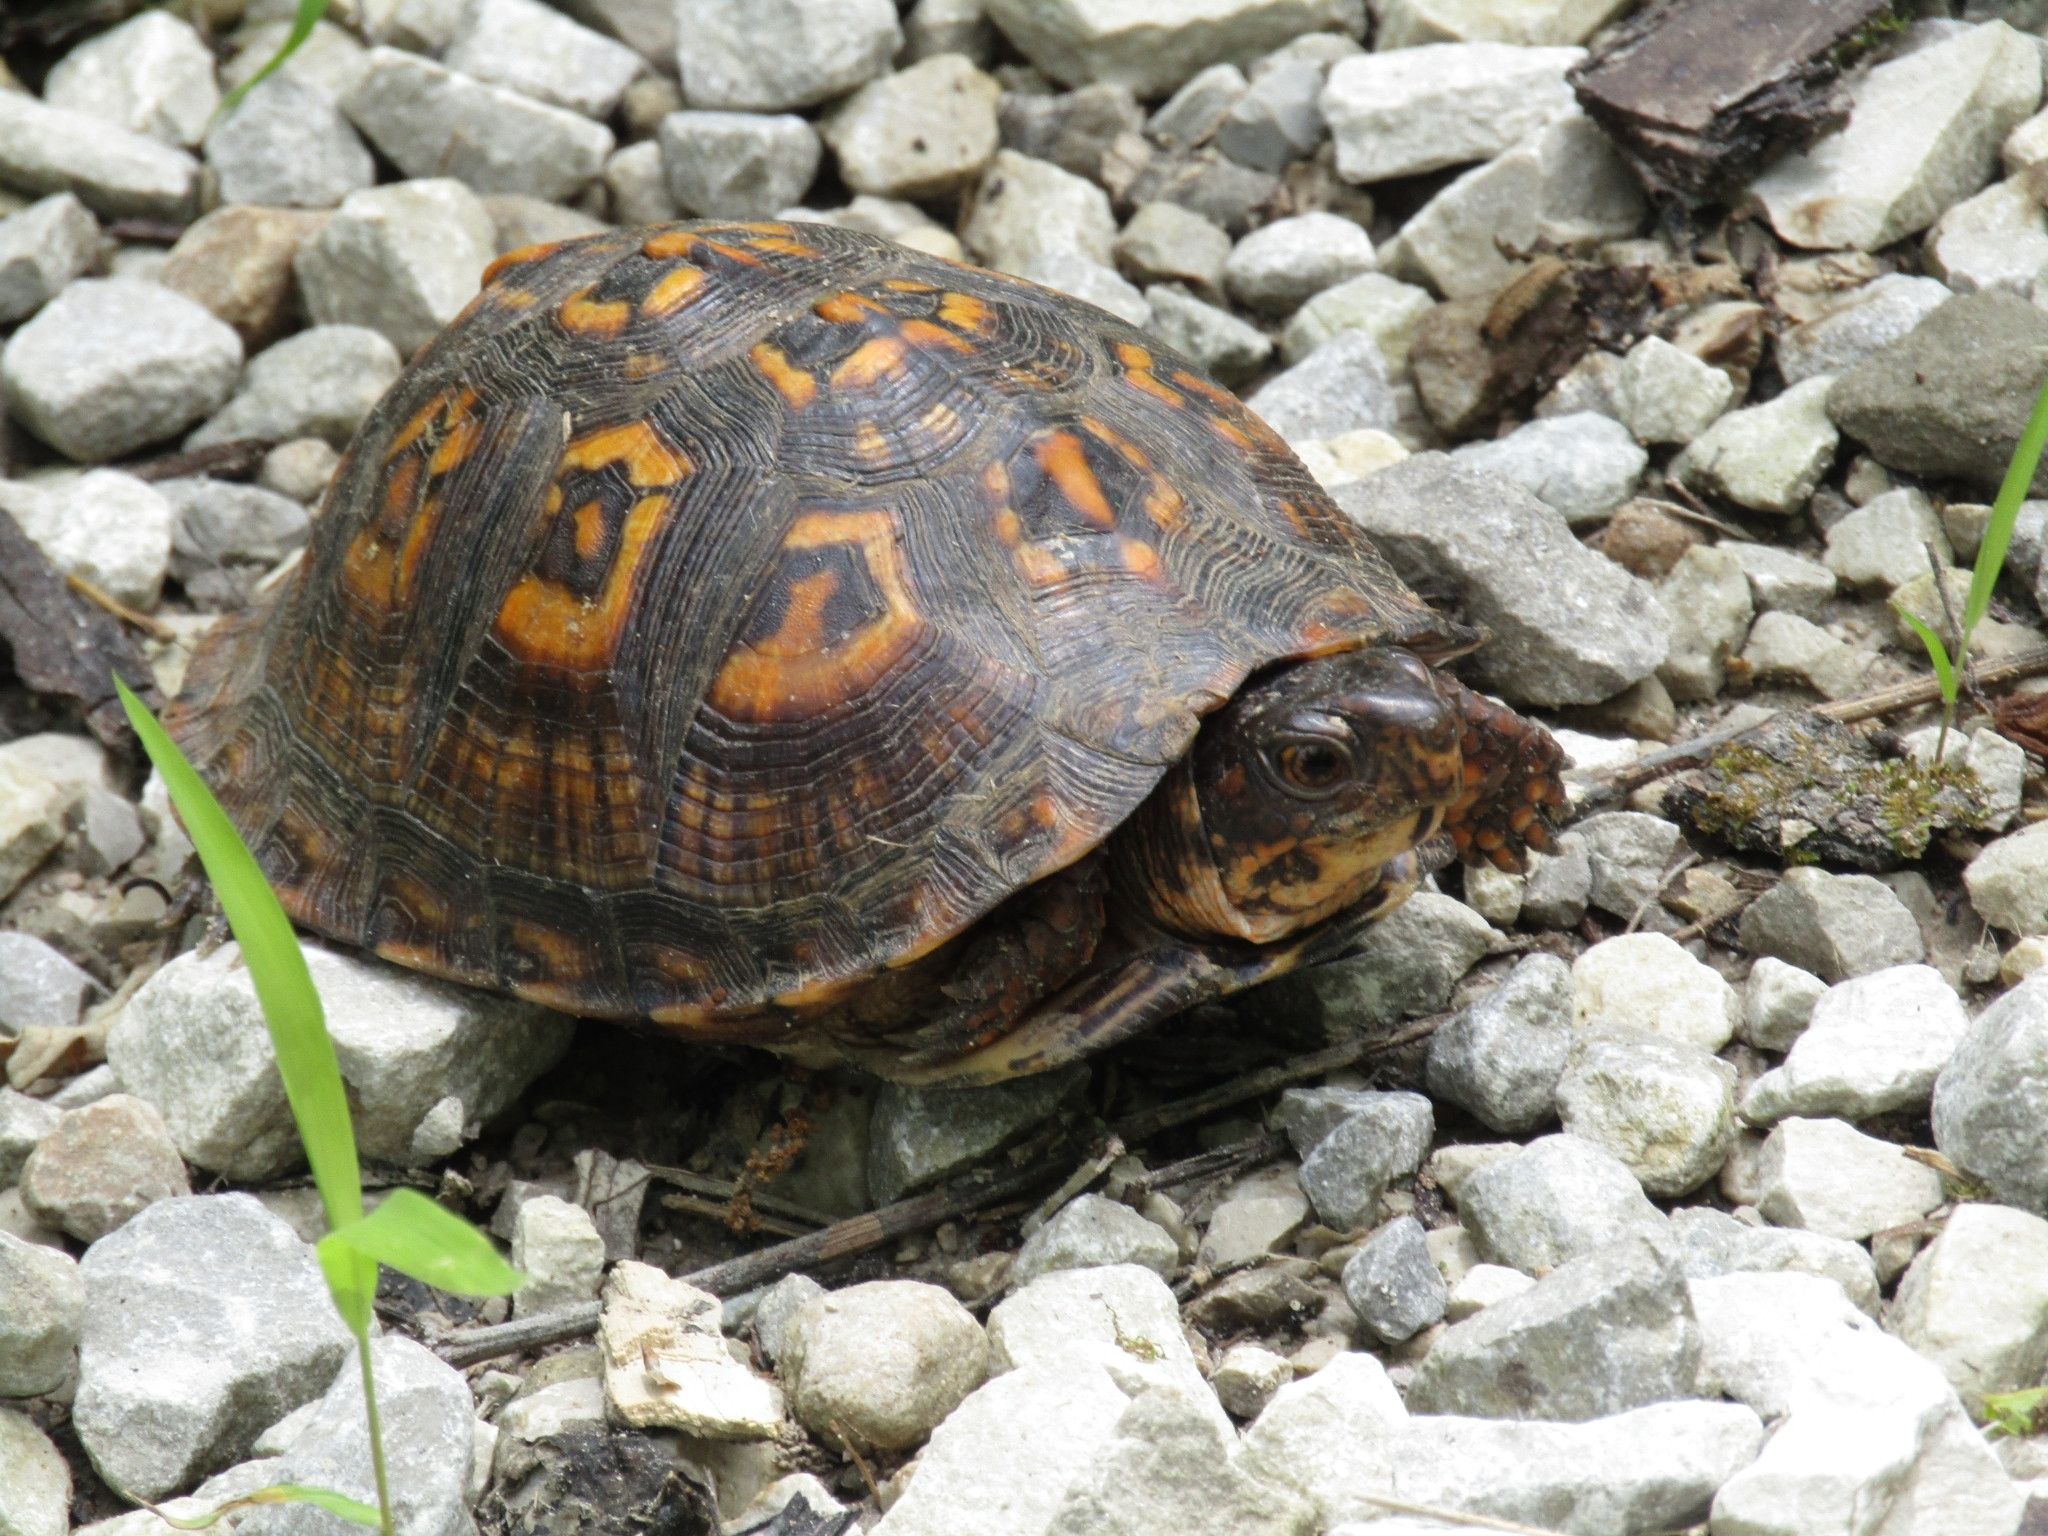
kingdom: Animalia
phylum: Chordata
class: Testudines
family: Emydidae
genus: Terrapene
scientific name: Terrapene carolina
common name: Common box turtle
